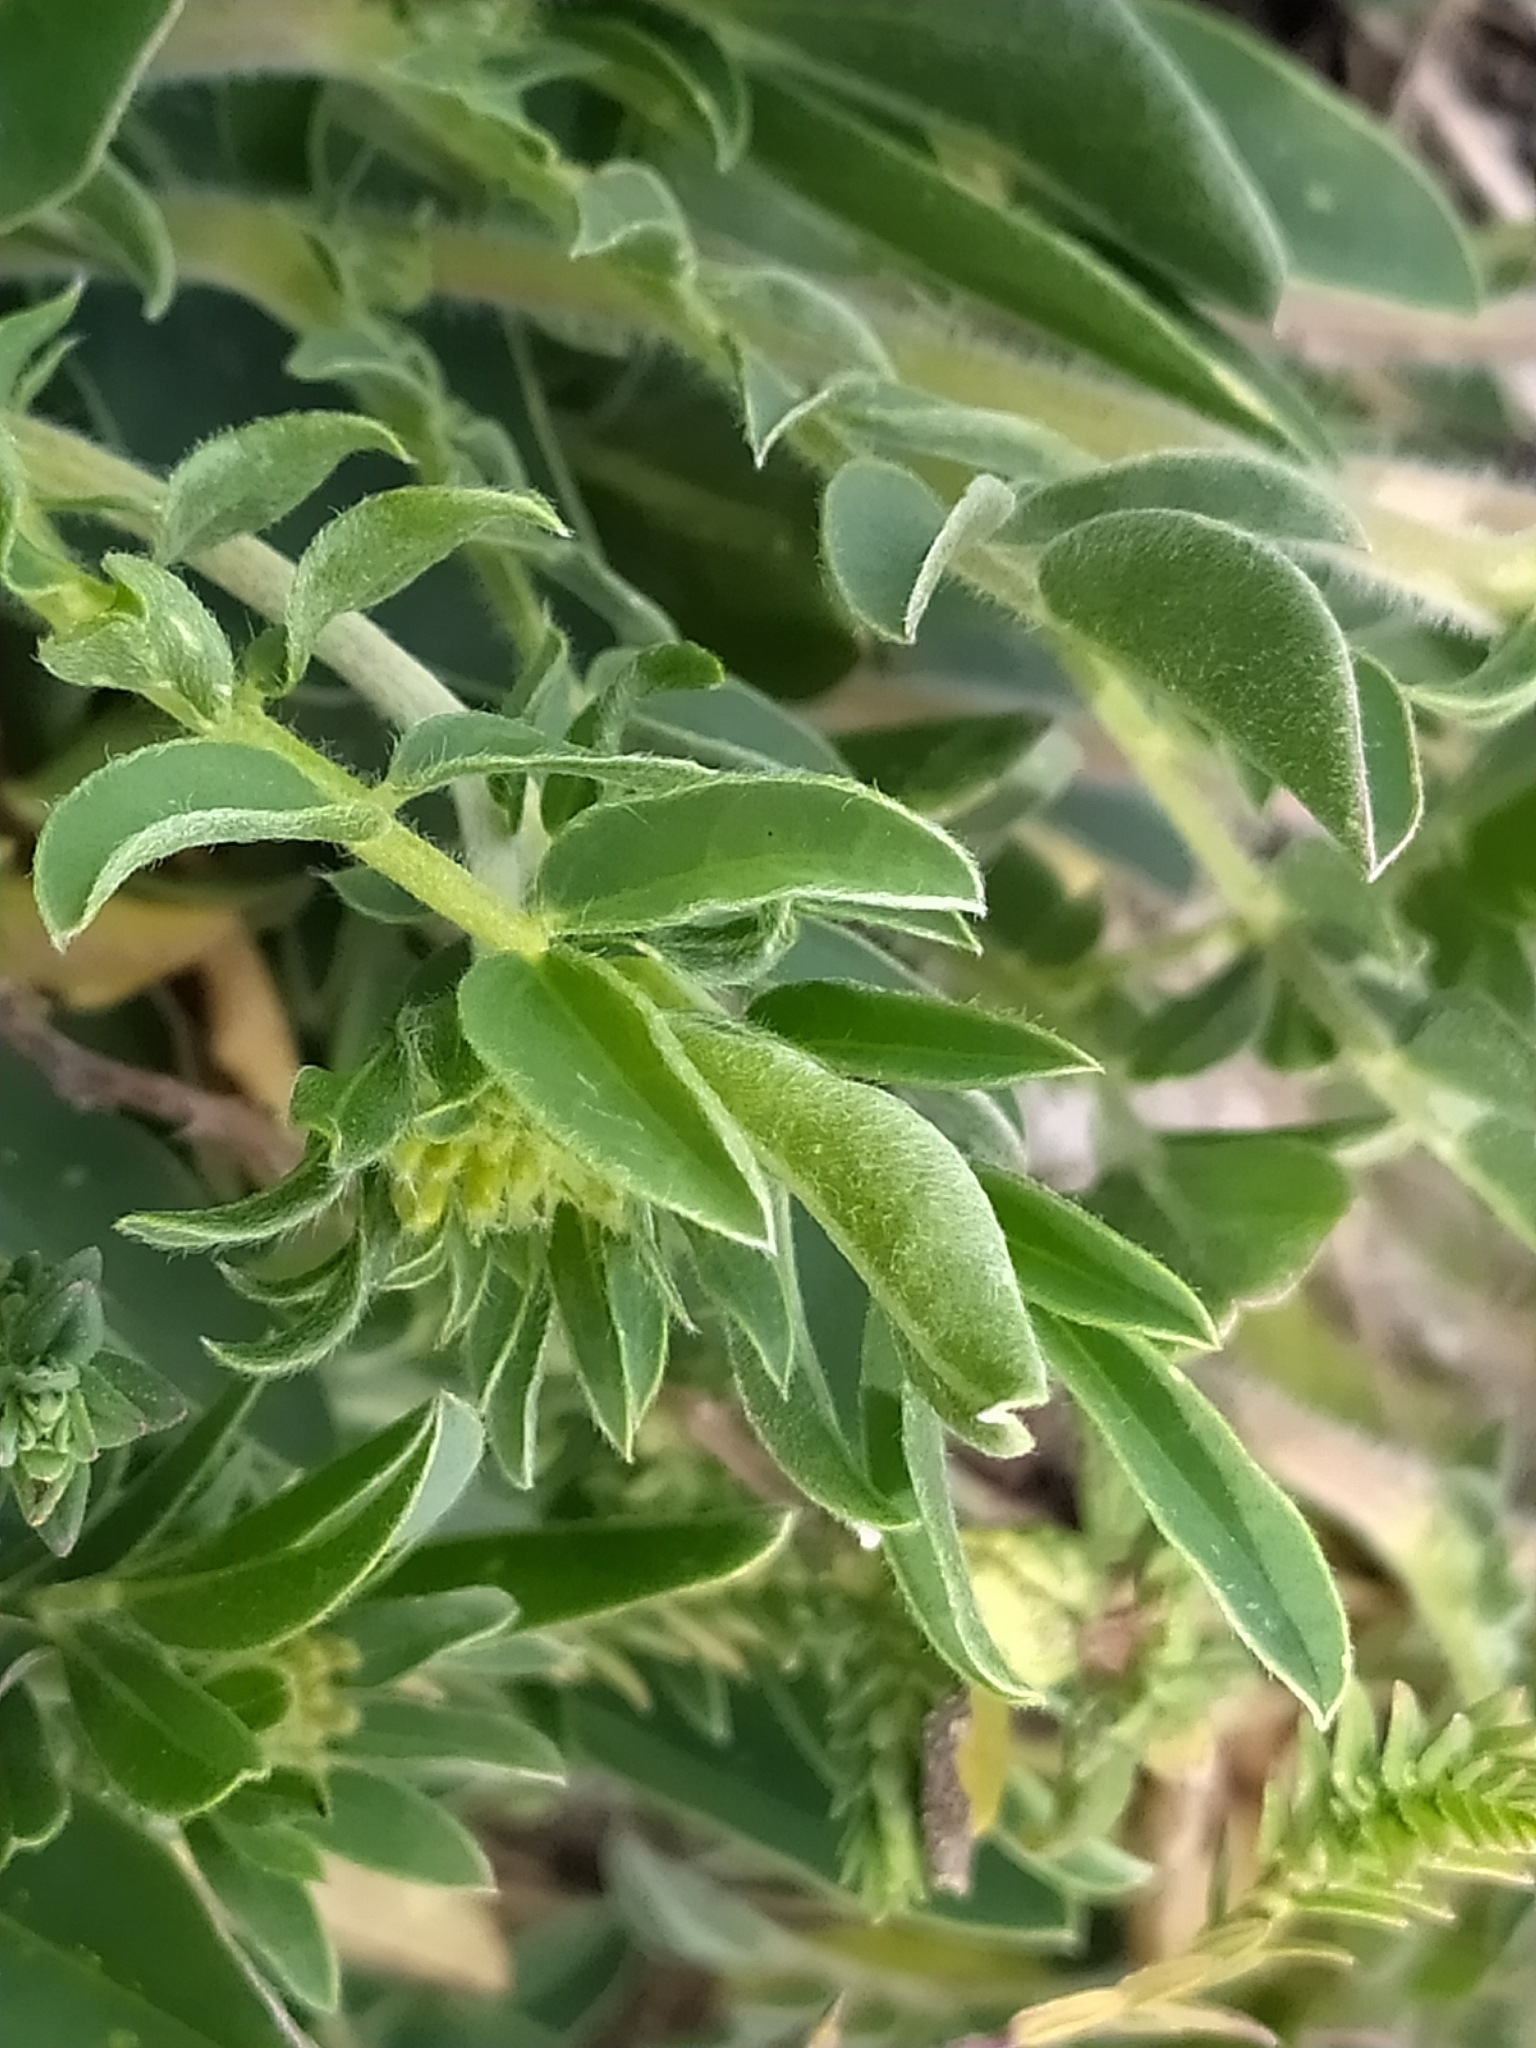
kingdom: Plantae
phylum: Tracheophyta
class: Magnoliopsida
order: Fabales
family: Fabaceae
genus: Anthyllis
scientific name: Anthyllis vulneraria
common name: Kidney vetch
